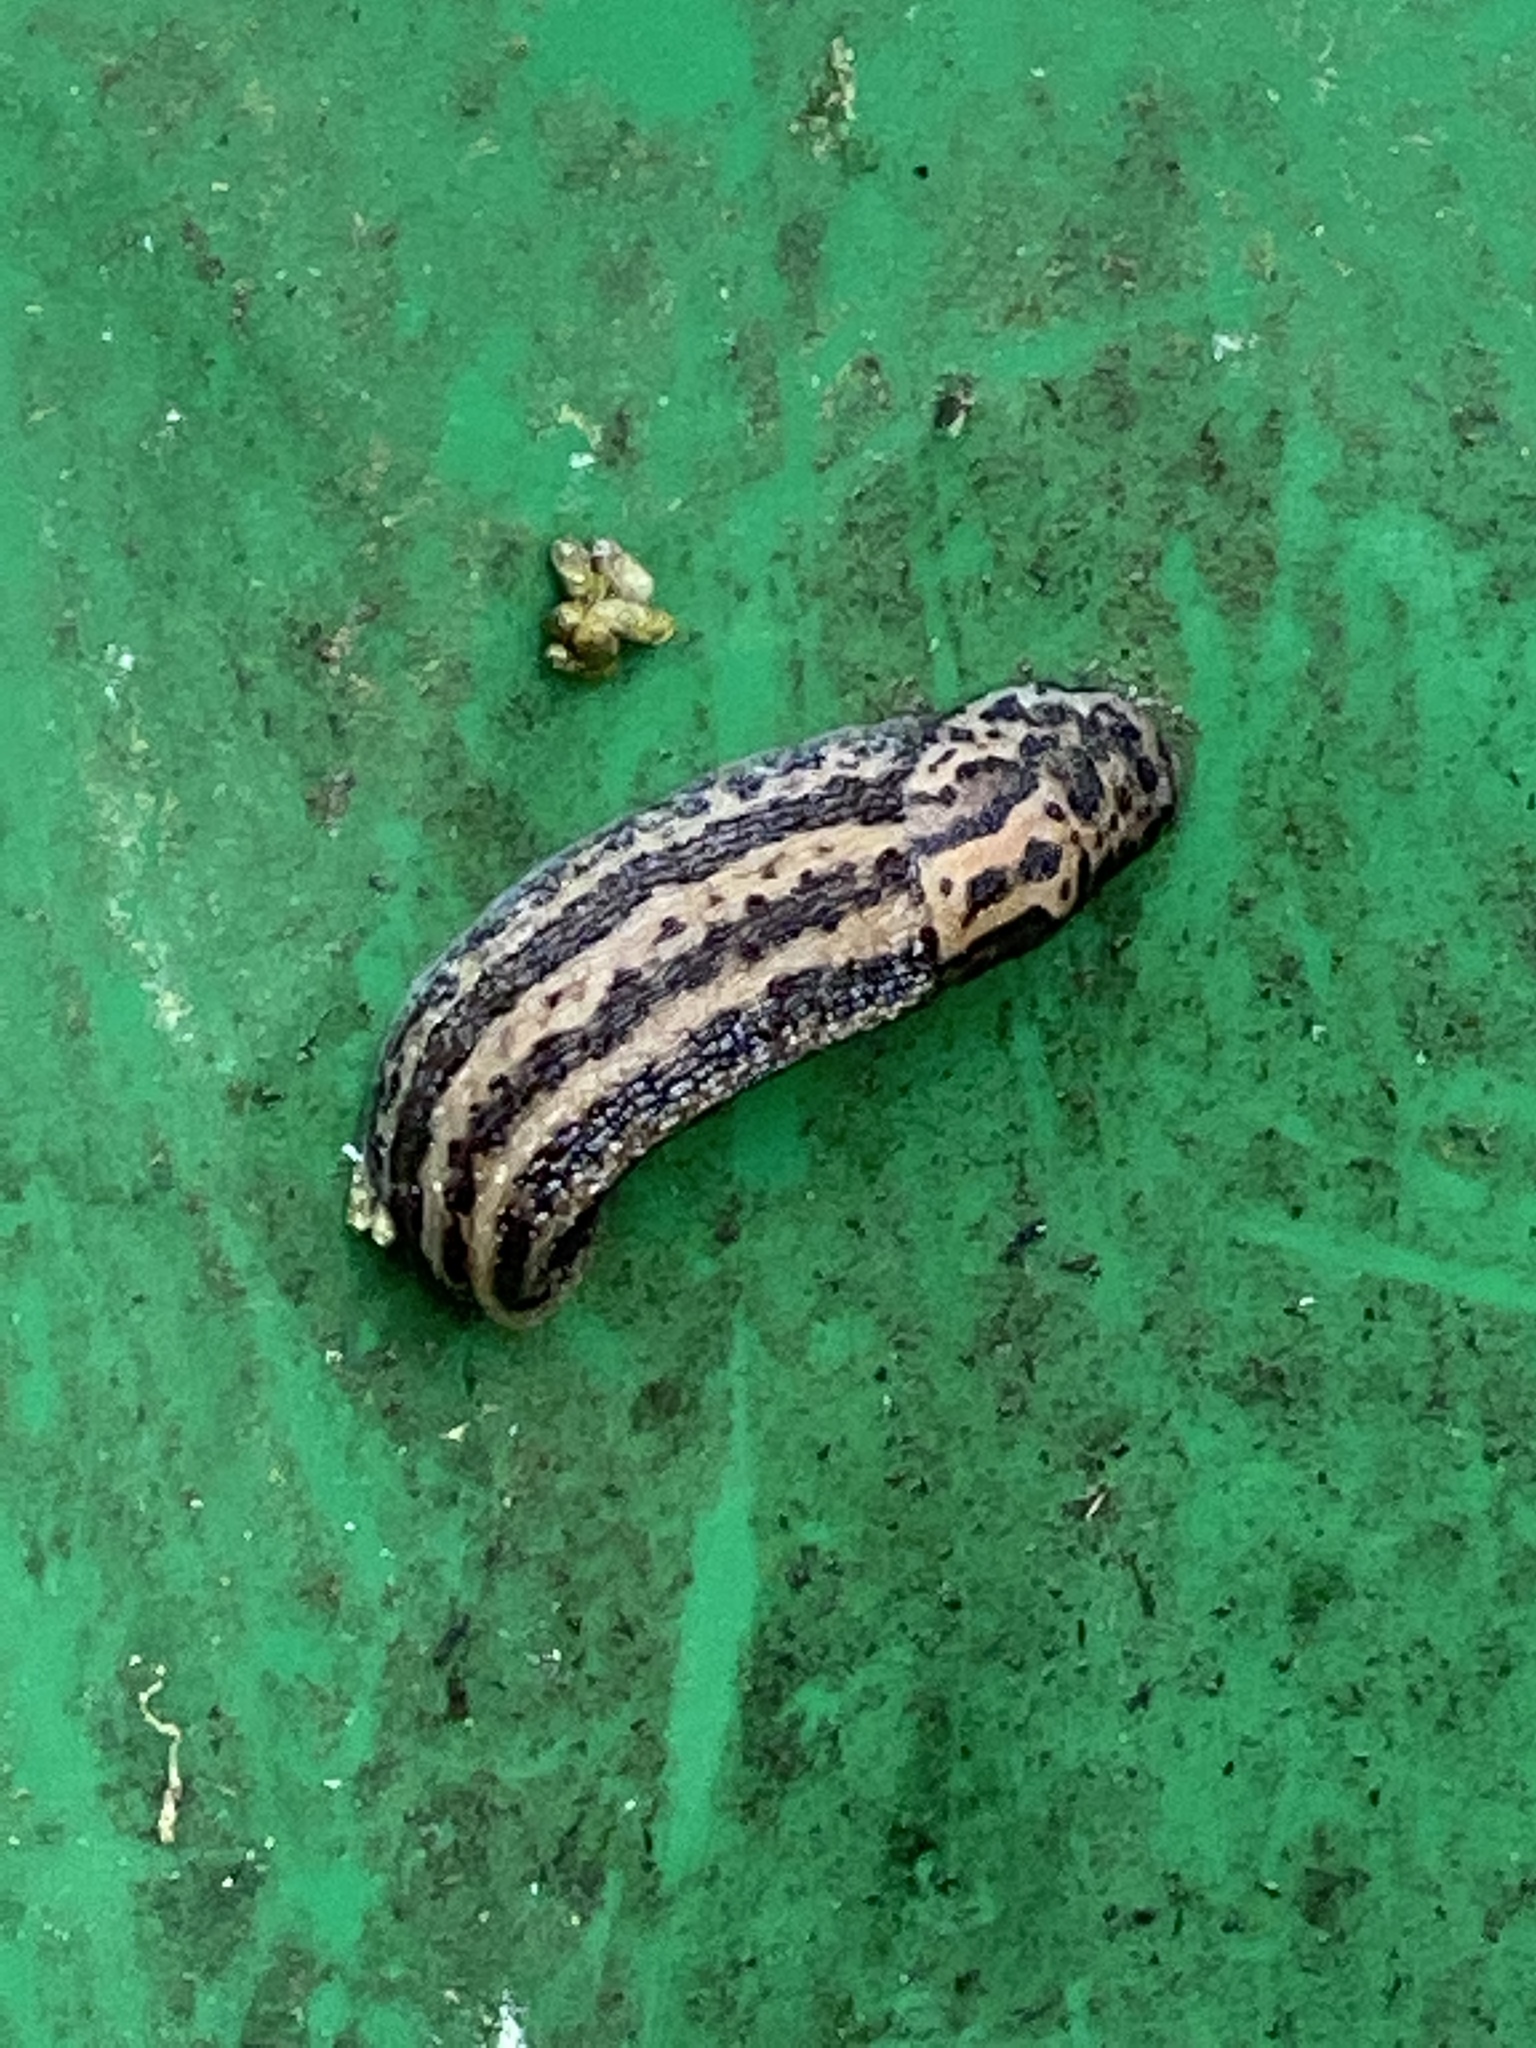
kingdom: Animalia
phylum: Mollusca
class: Gastropoda
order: Stylommatophora
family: Limacidae
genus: Limax
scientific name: Limax maximus
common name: Great grey slug
